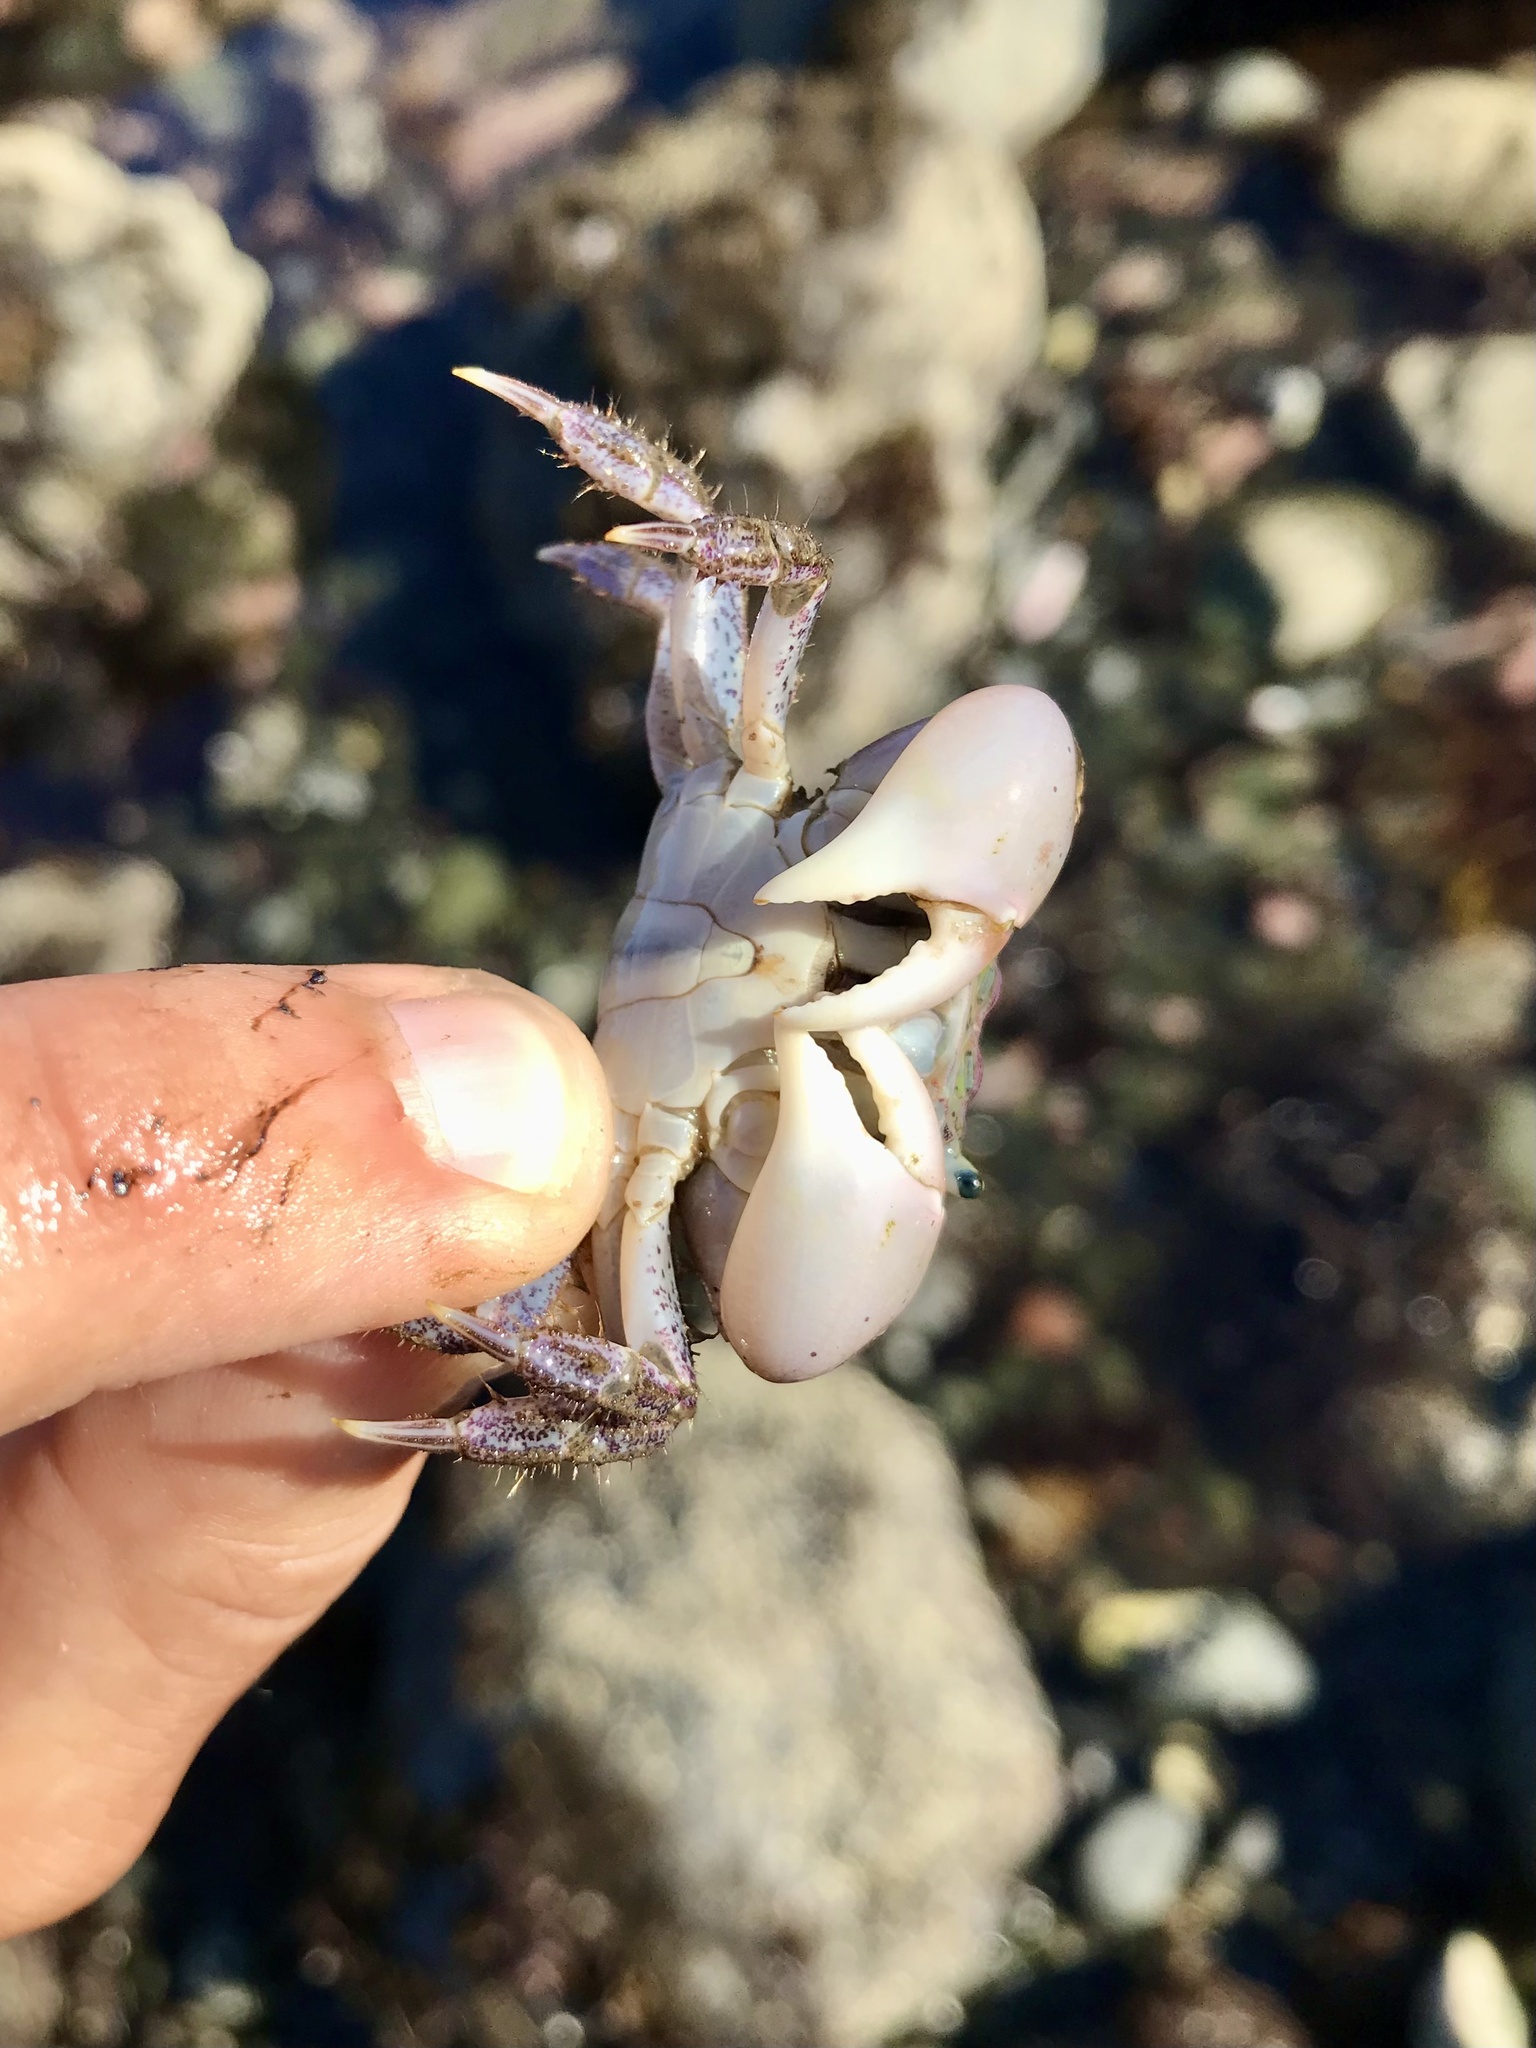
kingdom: Animalia
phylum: Arthropoda
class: Malacostraca
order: Decapoda
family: Varunidae
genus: Hemigrapsus
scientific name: Hemigrapsus oregonensis
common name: Yellow shore crab
